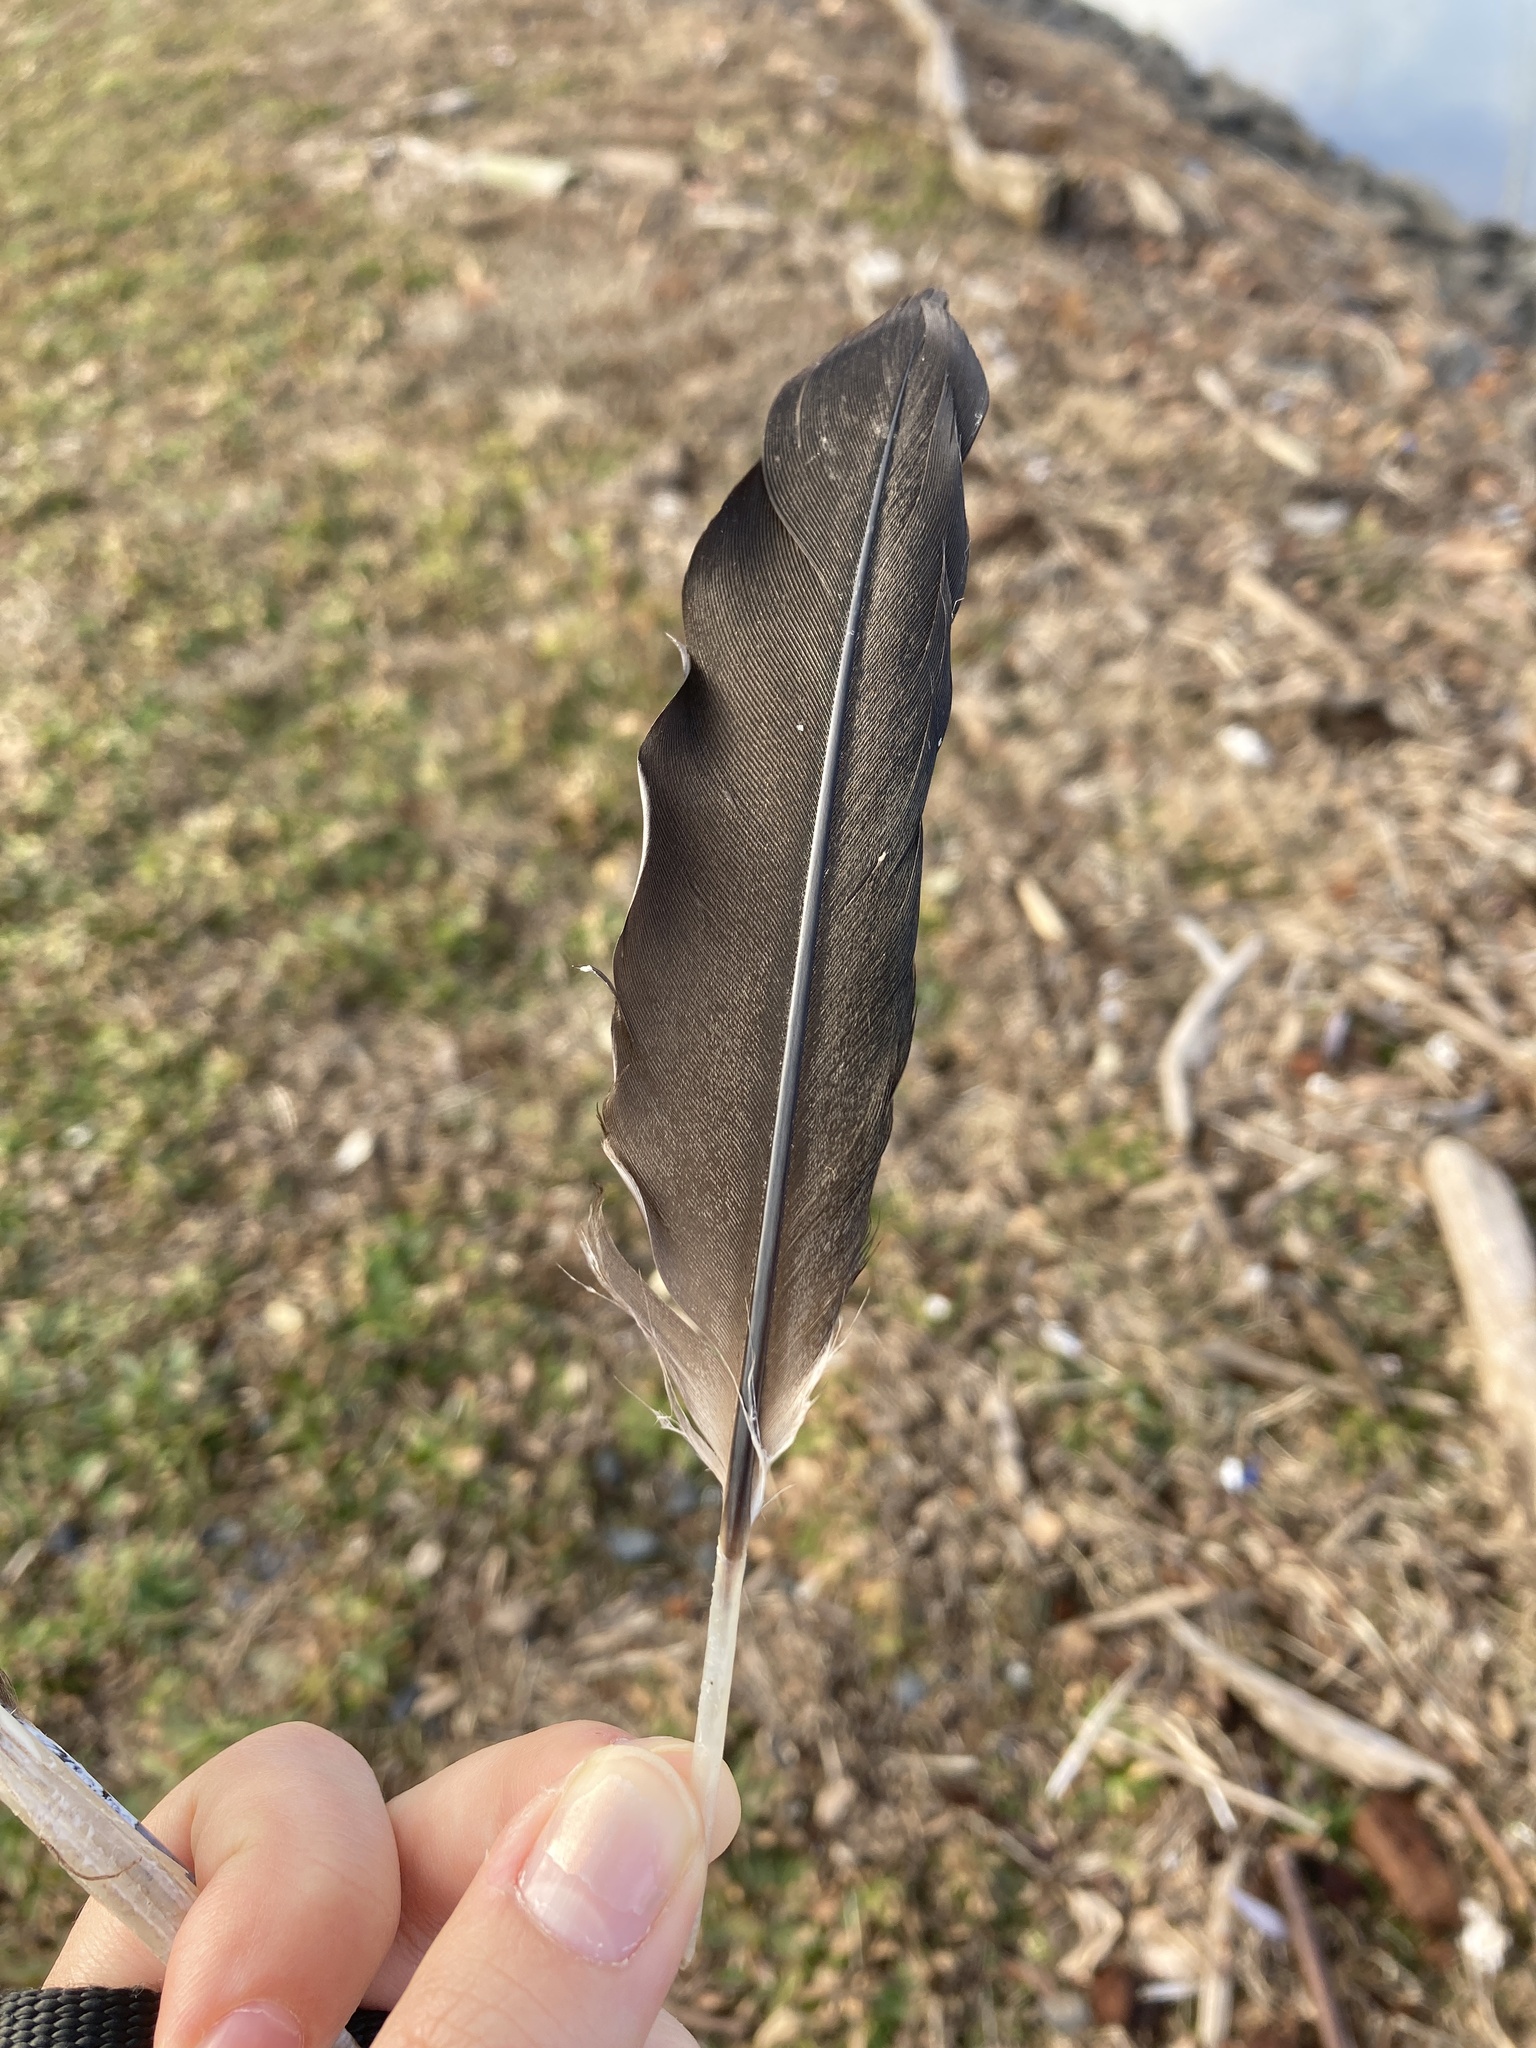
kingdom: Animalia
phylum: Chordata
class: Aves
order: Suliformes
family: Phalacrocoracidae
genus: Phalacrocorax
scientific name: Phalacrocorax auritus
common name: Double-crested cormorant
